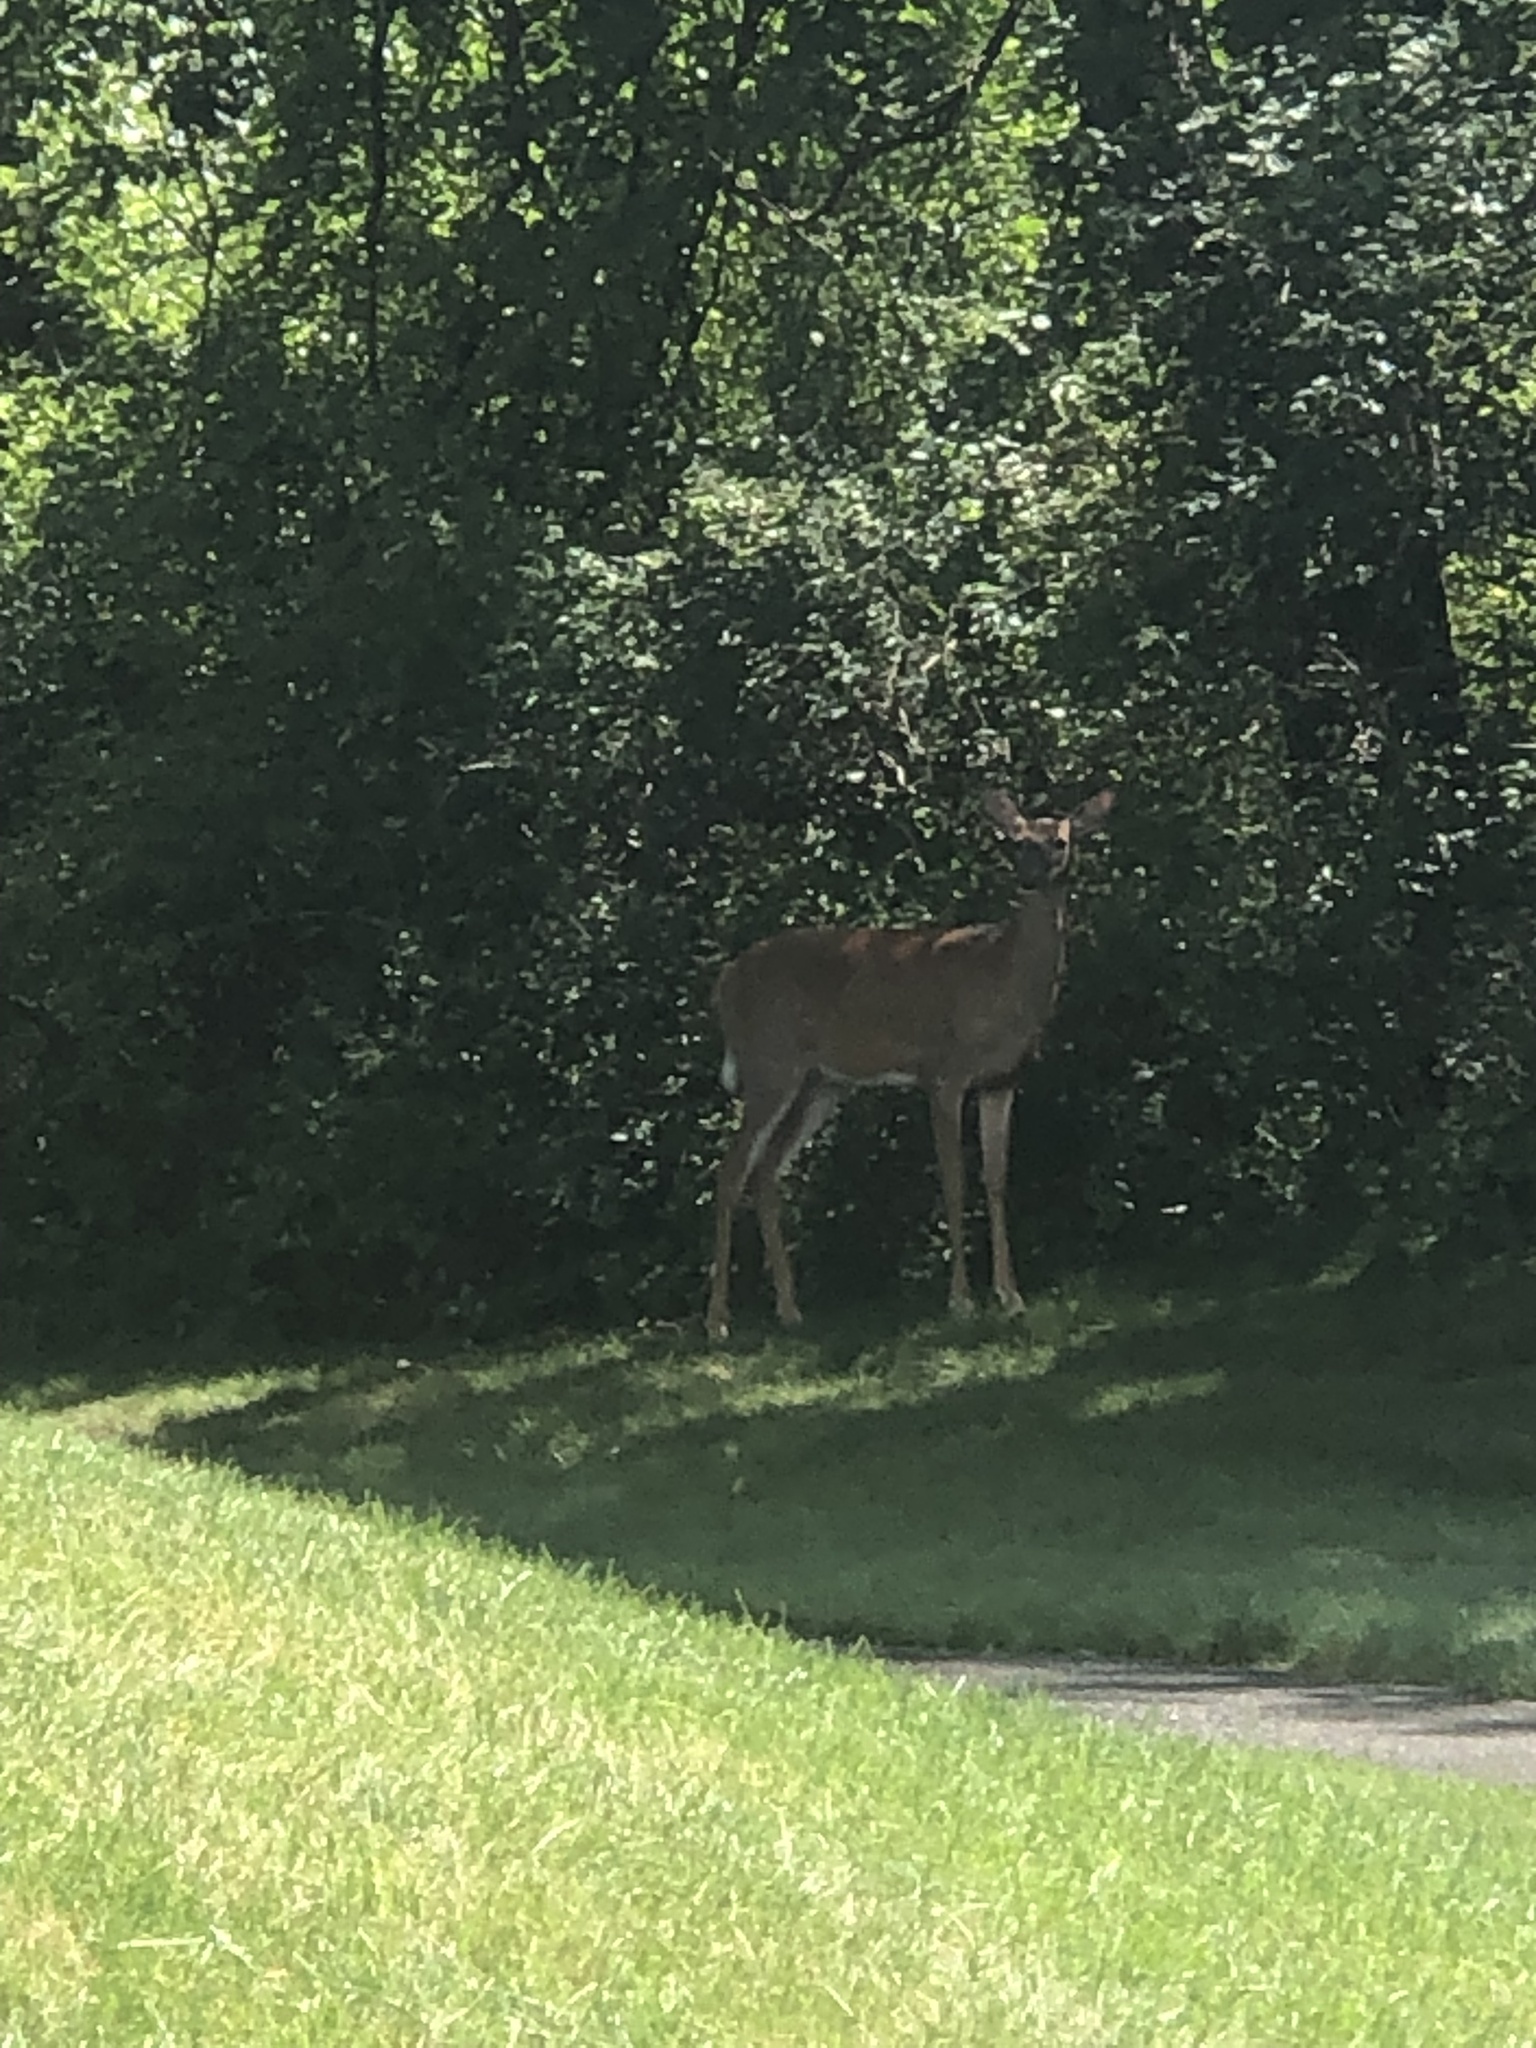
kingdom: Animalia
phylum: Chordata
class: Mammalia
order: Artiodactyla
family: Cervidae
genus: Odocoileus
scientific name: Odocoileus virginianus
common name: White-tailed deer
